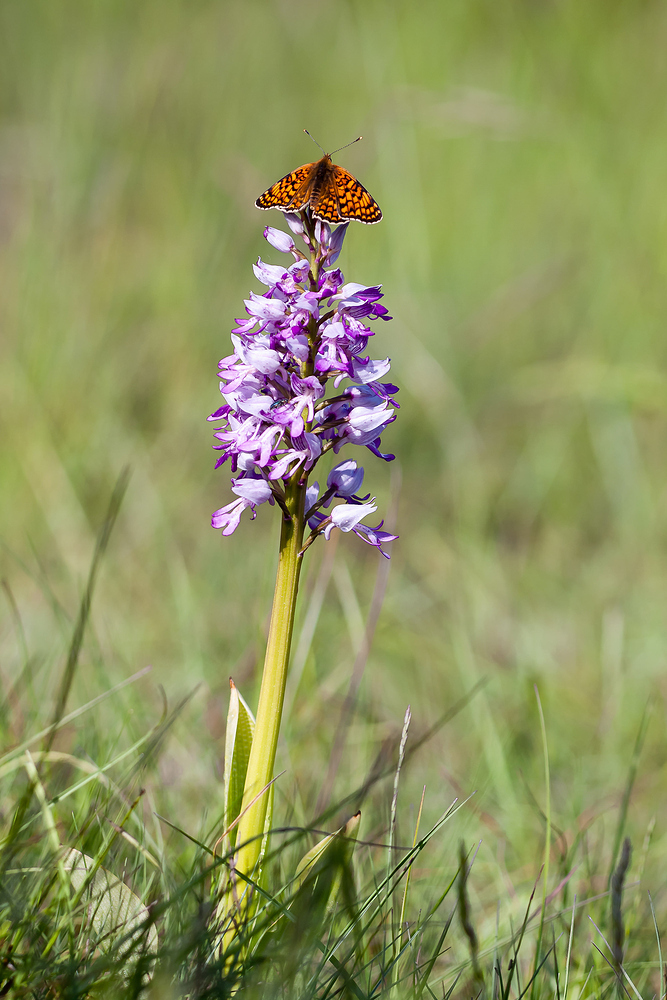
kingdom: Plantae
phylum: Tracheophyta
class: Liliopsida
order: Asparagales
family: Orchidaceae
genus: Orchis
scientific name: Orchis militaris
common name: Military orchid
